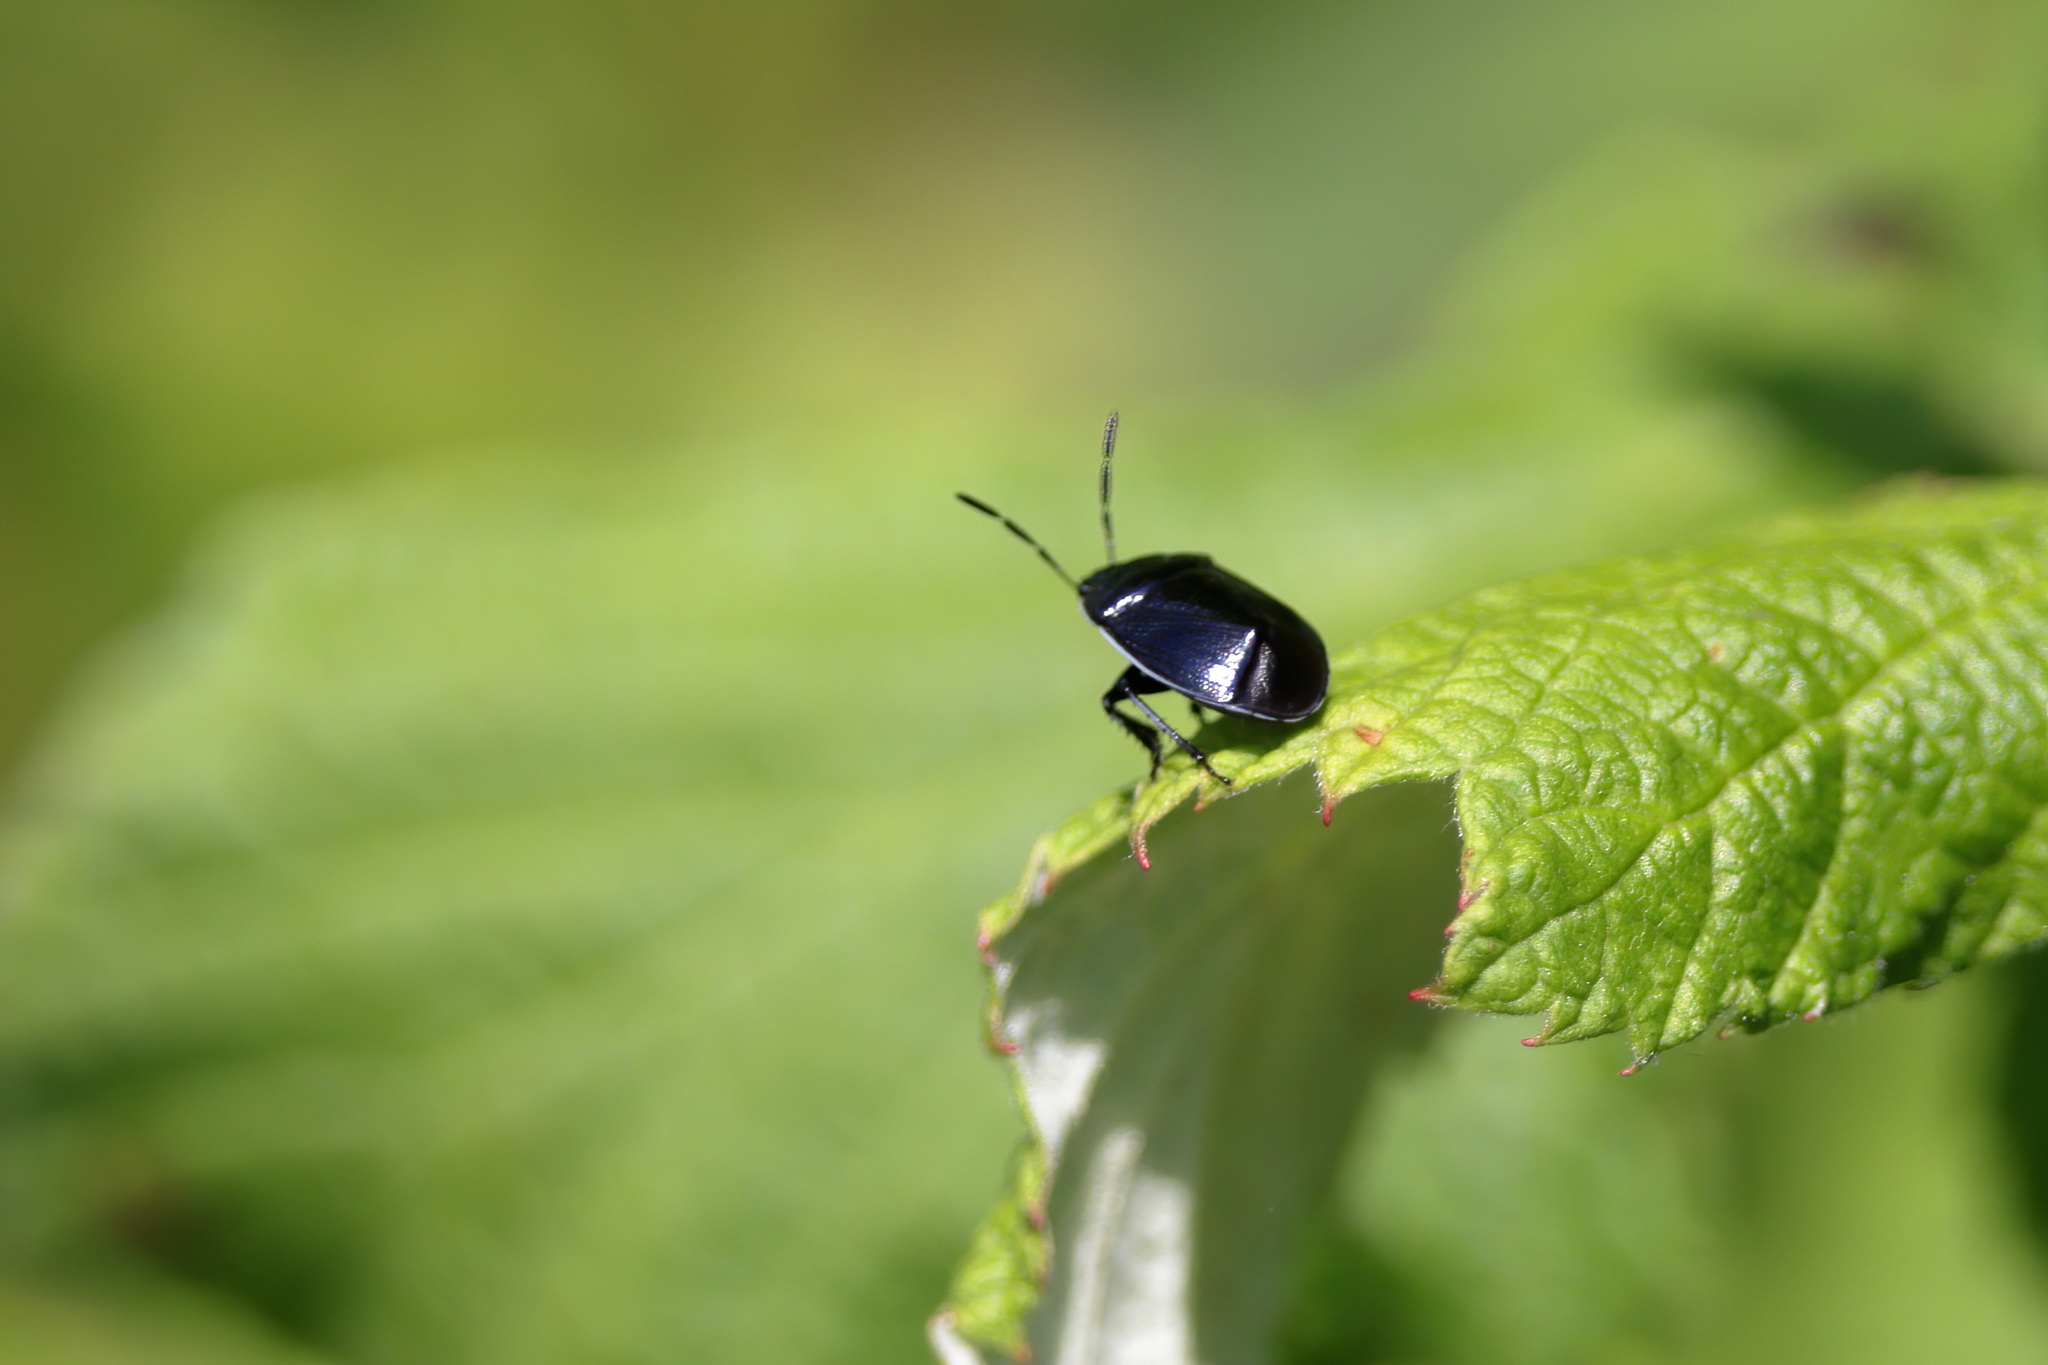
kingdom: Animalia
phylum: Arthropoda
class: Insecta
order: Hemiptera
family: Cydnidae
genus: Sehirus
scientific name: Sehirus cinctus
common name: White-margined burrower bug
